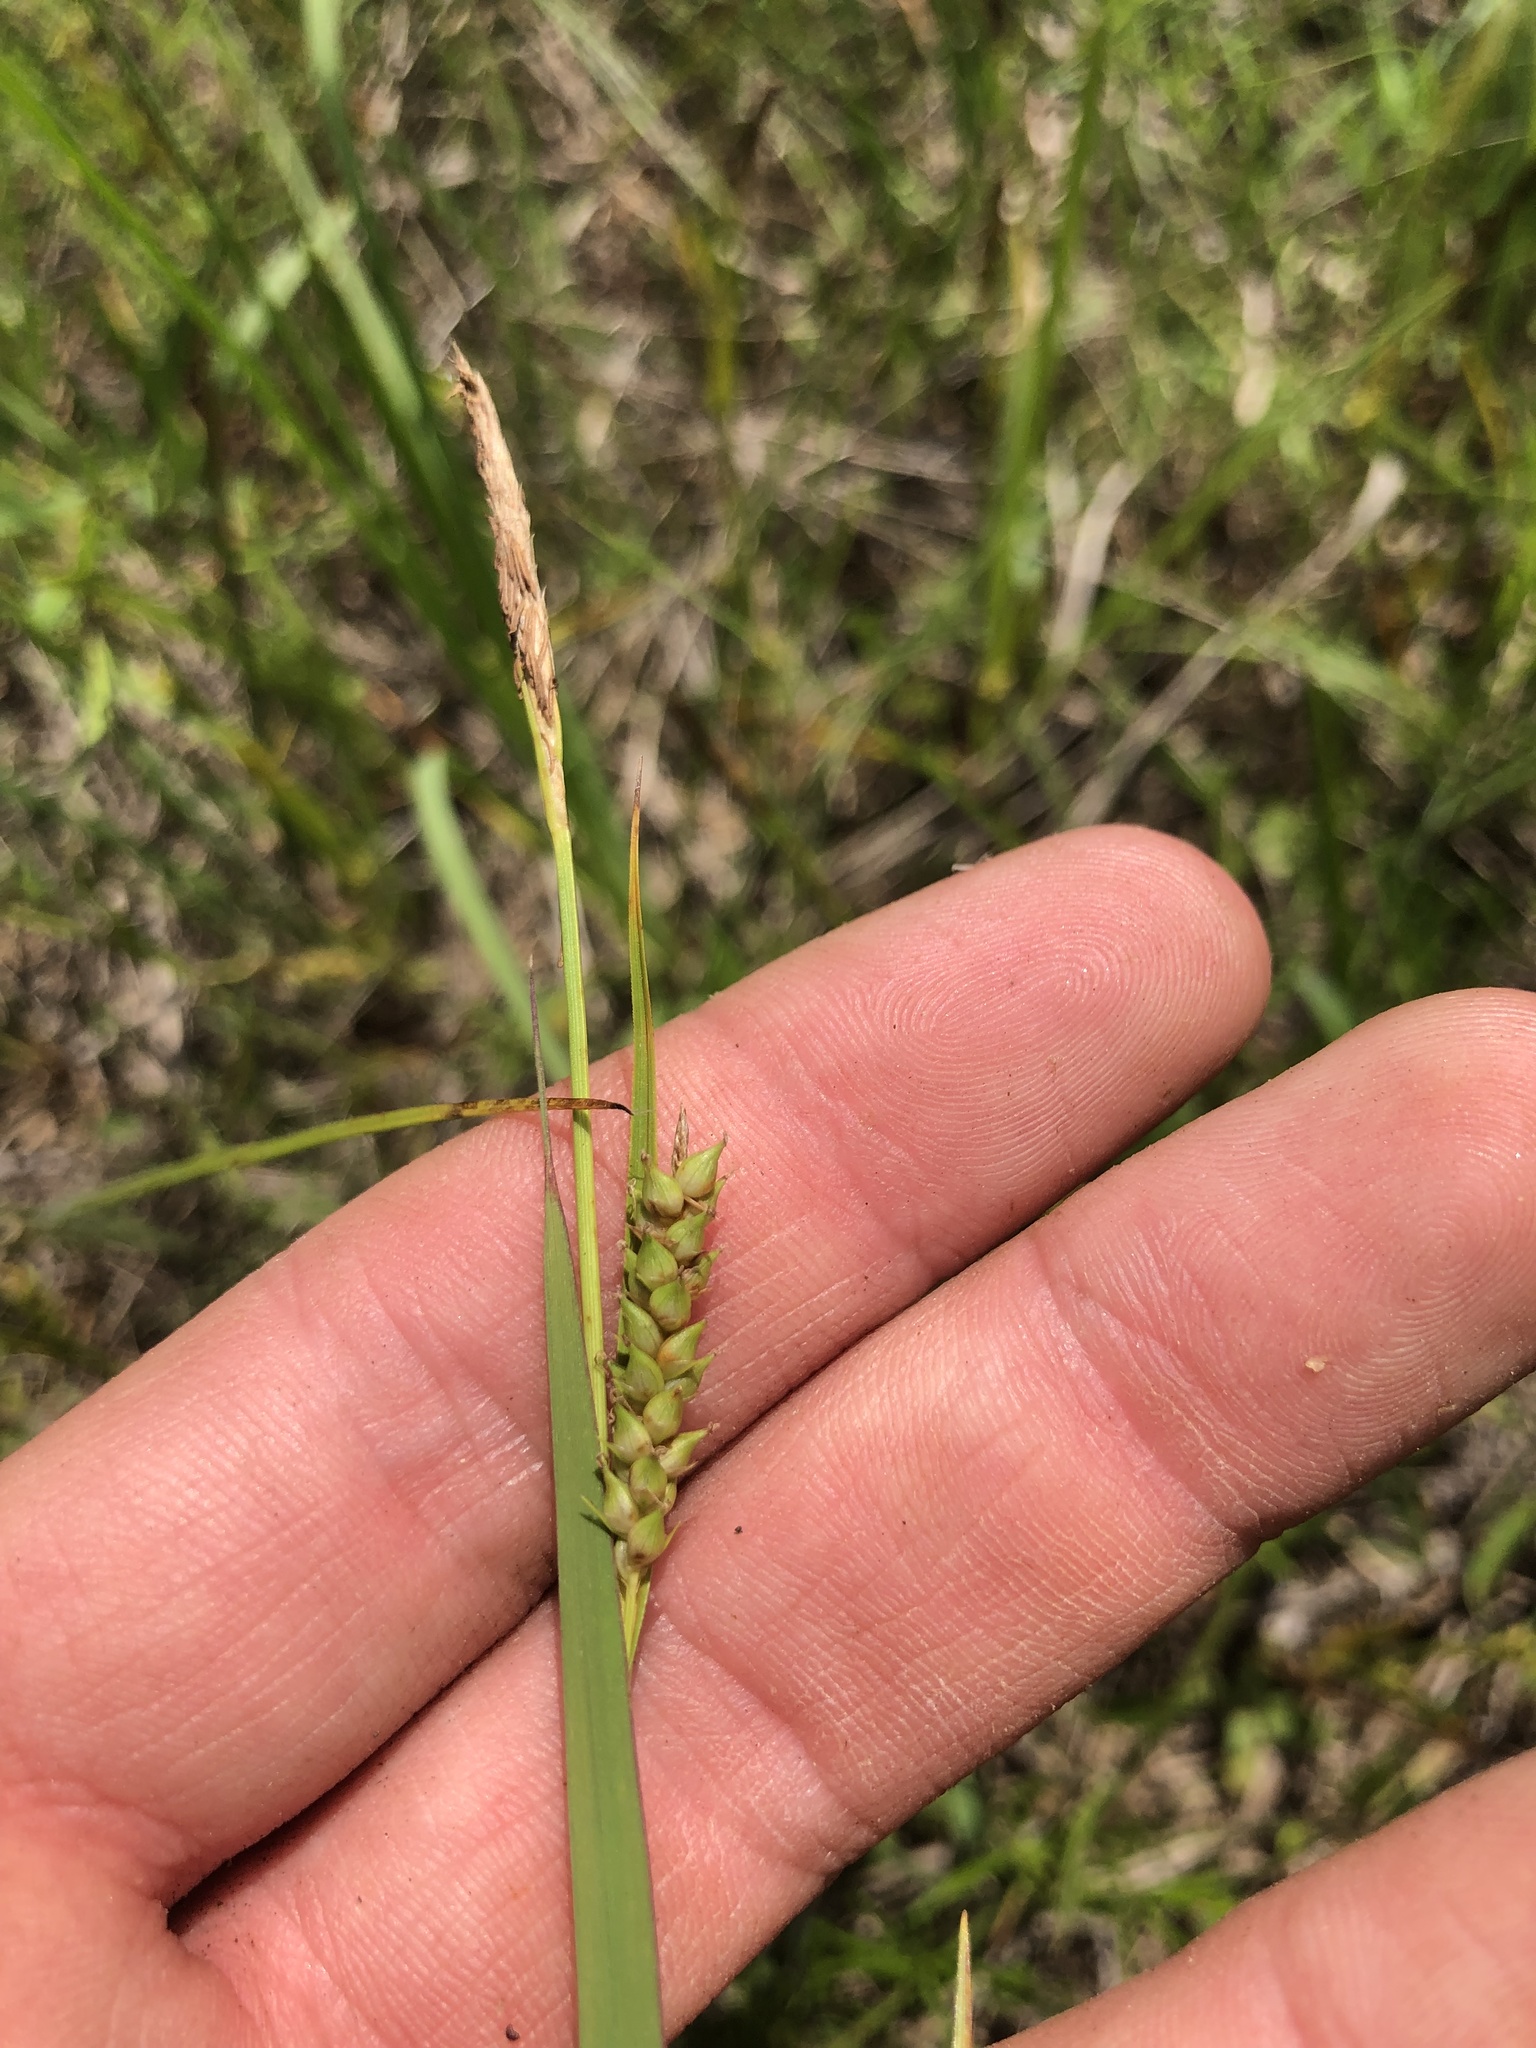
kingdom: Plantae
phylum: Tracheophyta
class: Liliopsida
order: Poales
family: Cyperaceae
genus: Carex
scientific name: Carex microdonta
